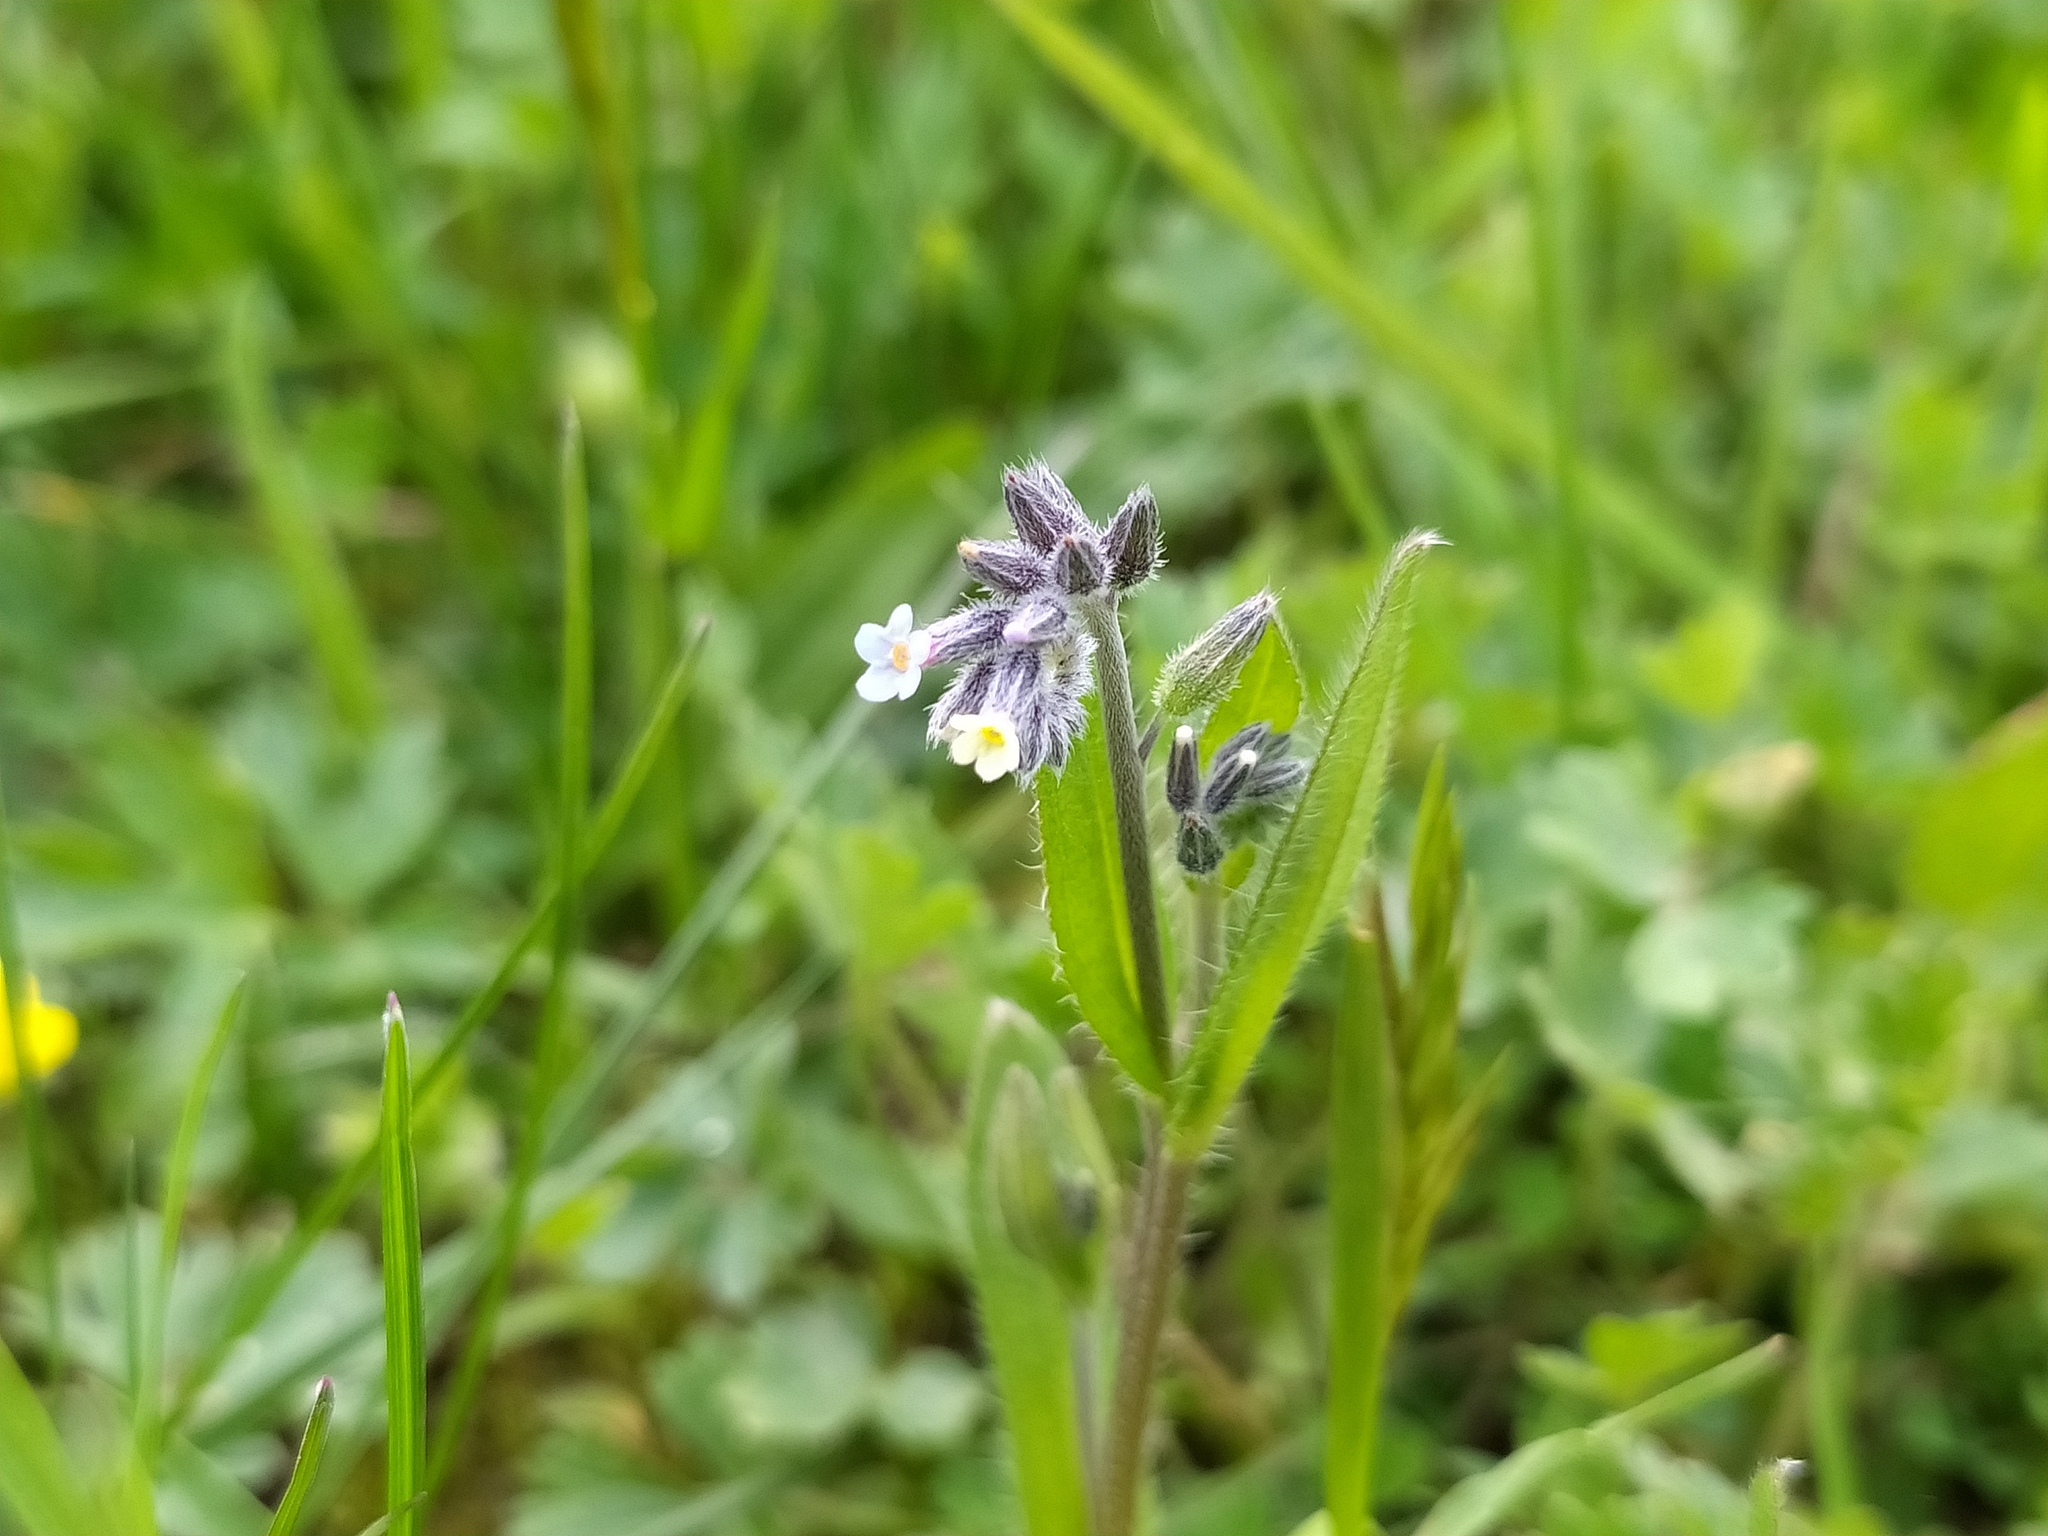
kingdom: Plantae
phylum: Tracheophyta
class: Magnoliopsida
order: Boraginales
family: Boraginaceae
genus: Myosotis
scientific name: Myosotis discolor
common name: Changing forget-me-not
